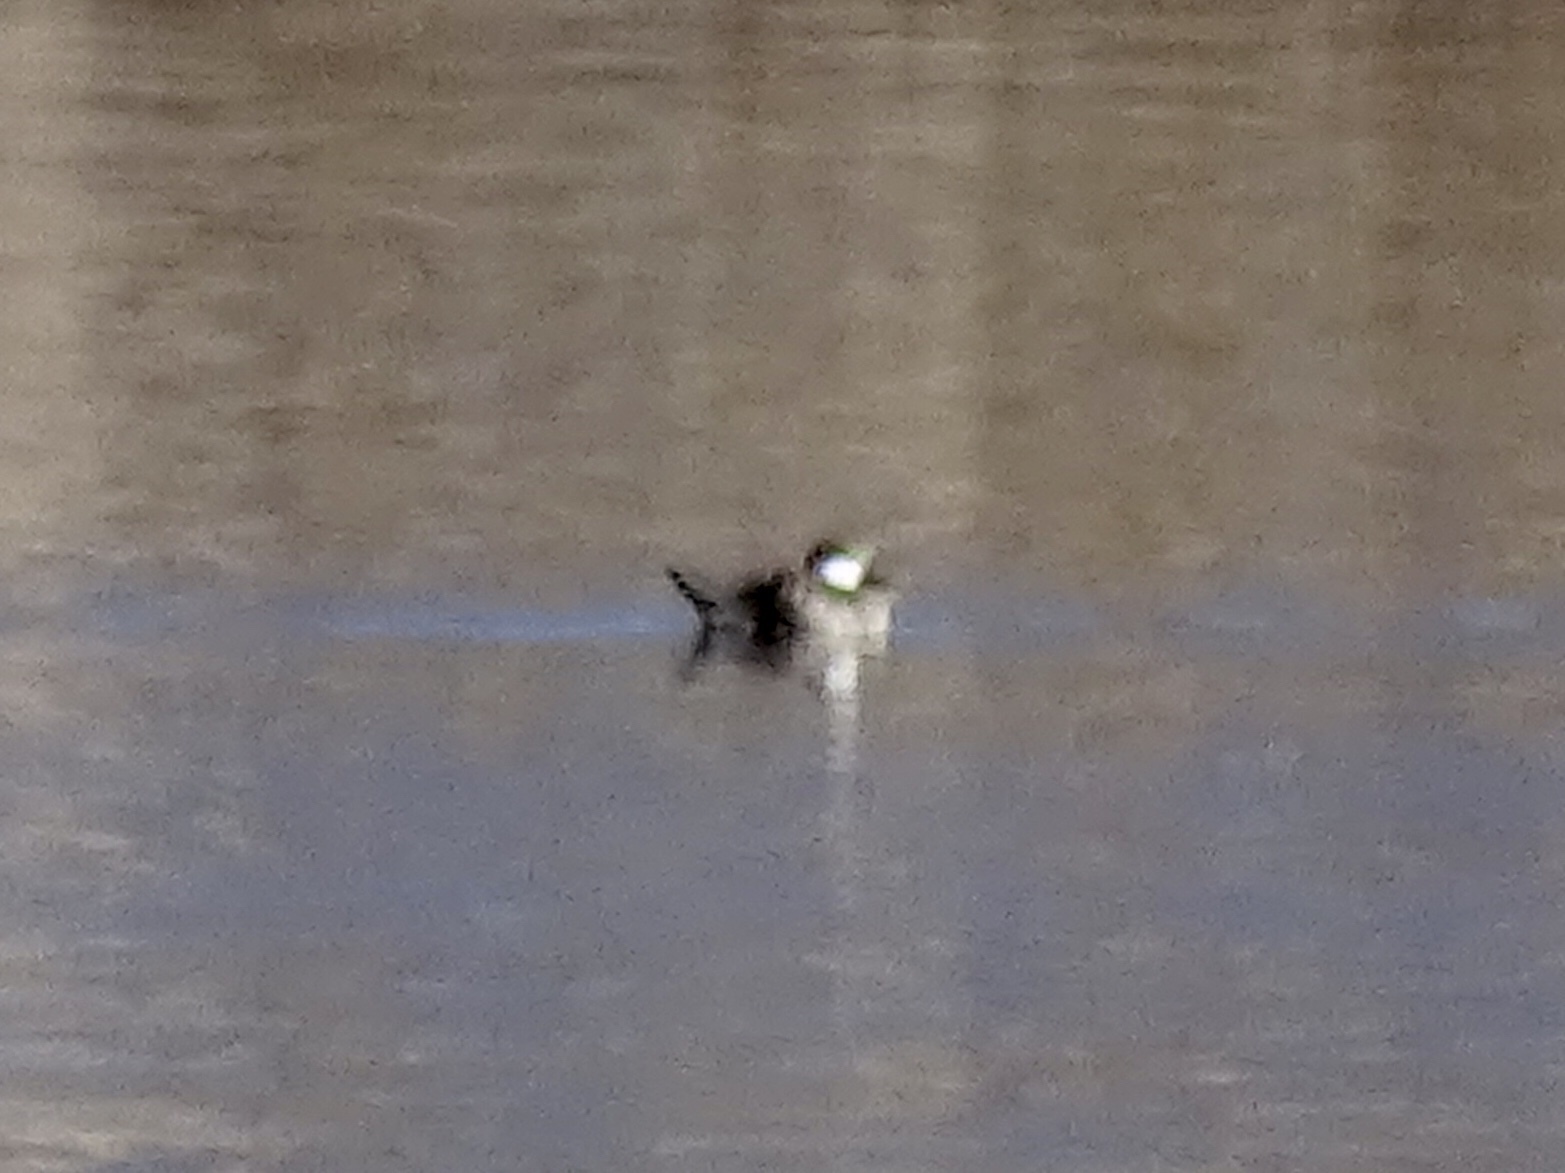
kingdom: Animalia
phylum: Chordata
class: Aves
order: Anseriformes
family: Anatidae
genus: Oxyura
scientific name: Oxyura jamaicensis
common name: Ruddy duck
